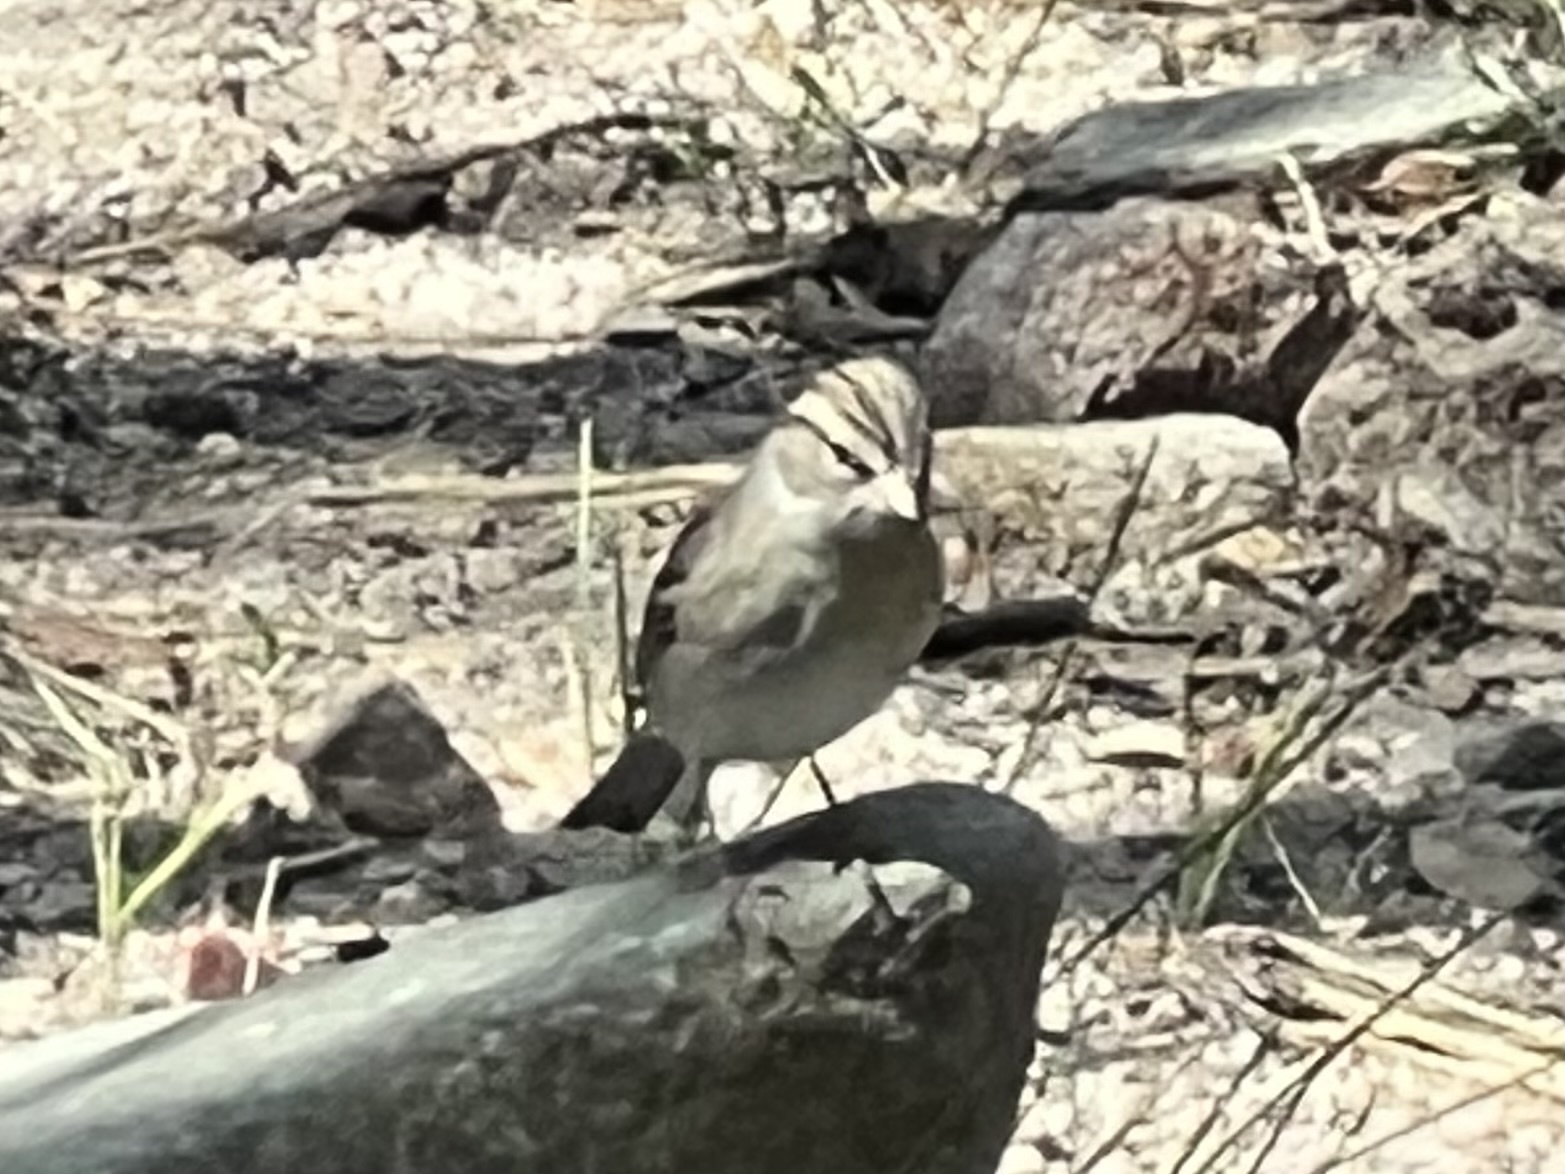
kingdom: Animalia
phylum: Chordata
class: Aves
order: Passeriformes
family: Passerellidae
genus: Spizella
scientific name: Spizella passerina
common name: Chipping sparrow
